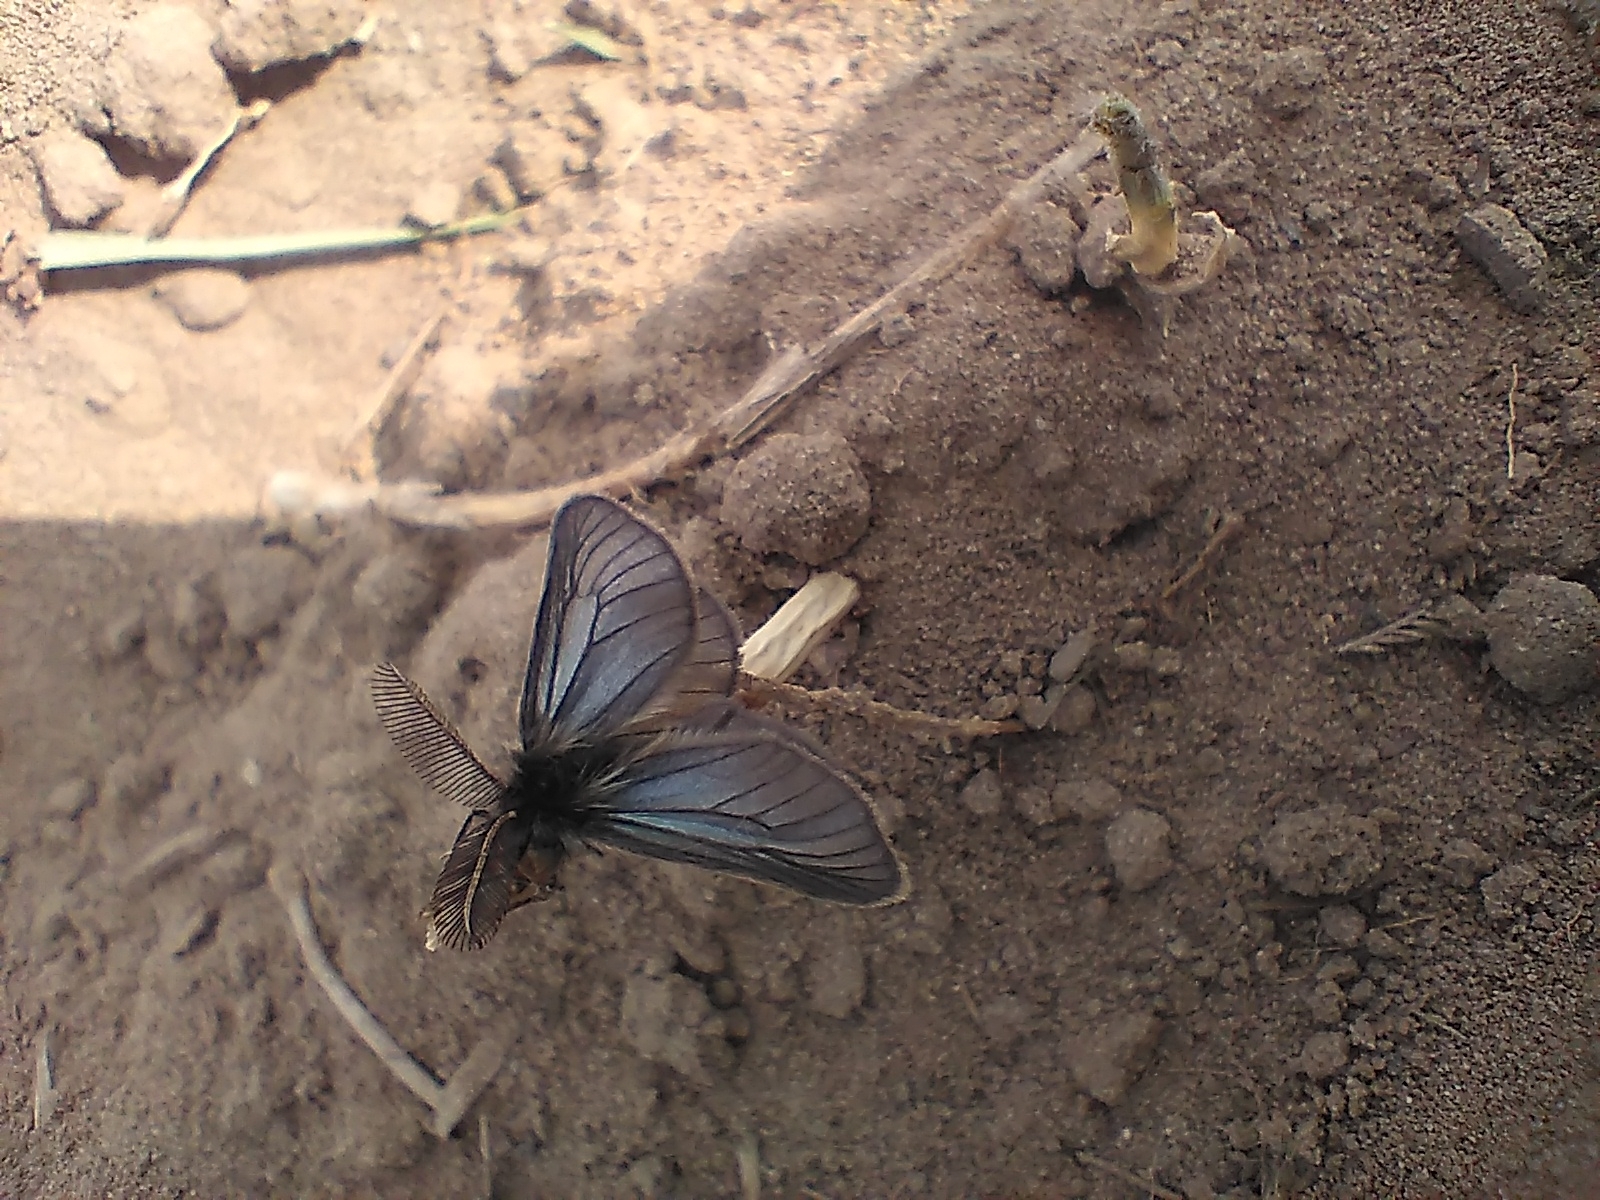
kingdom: Animalia
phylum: Arthropoda
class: Insecta
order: Lepidoptera
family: Erebidae
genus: Penthophera
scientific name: Penthophera morio
